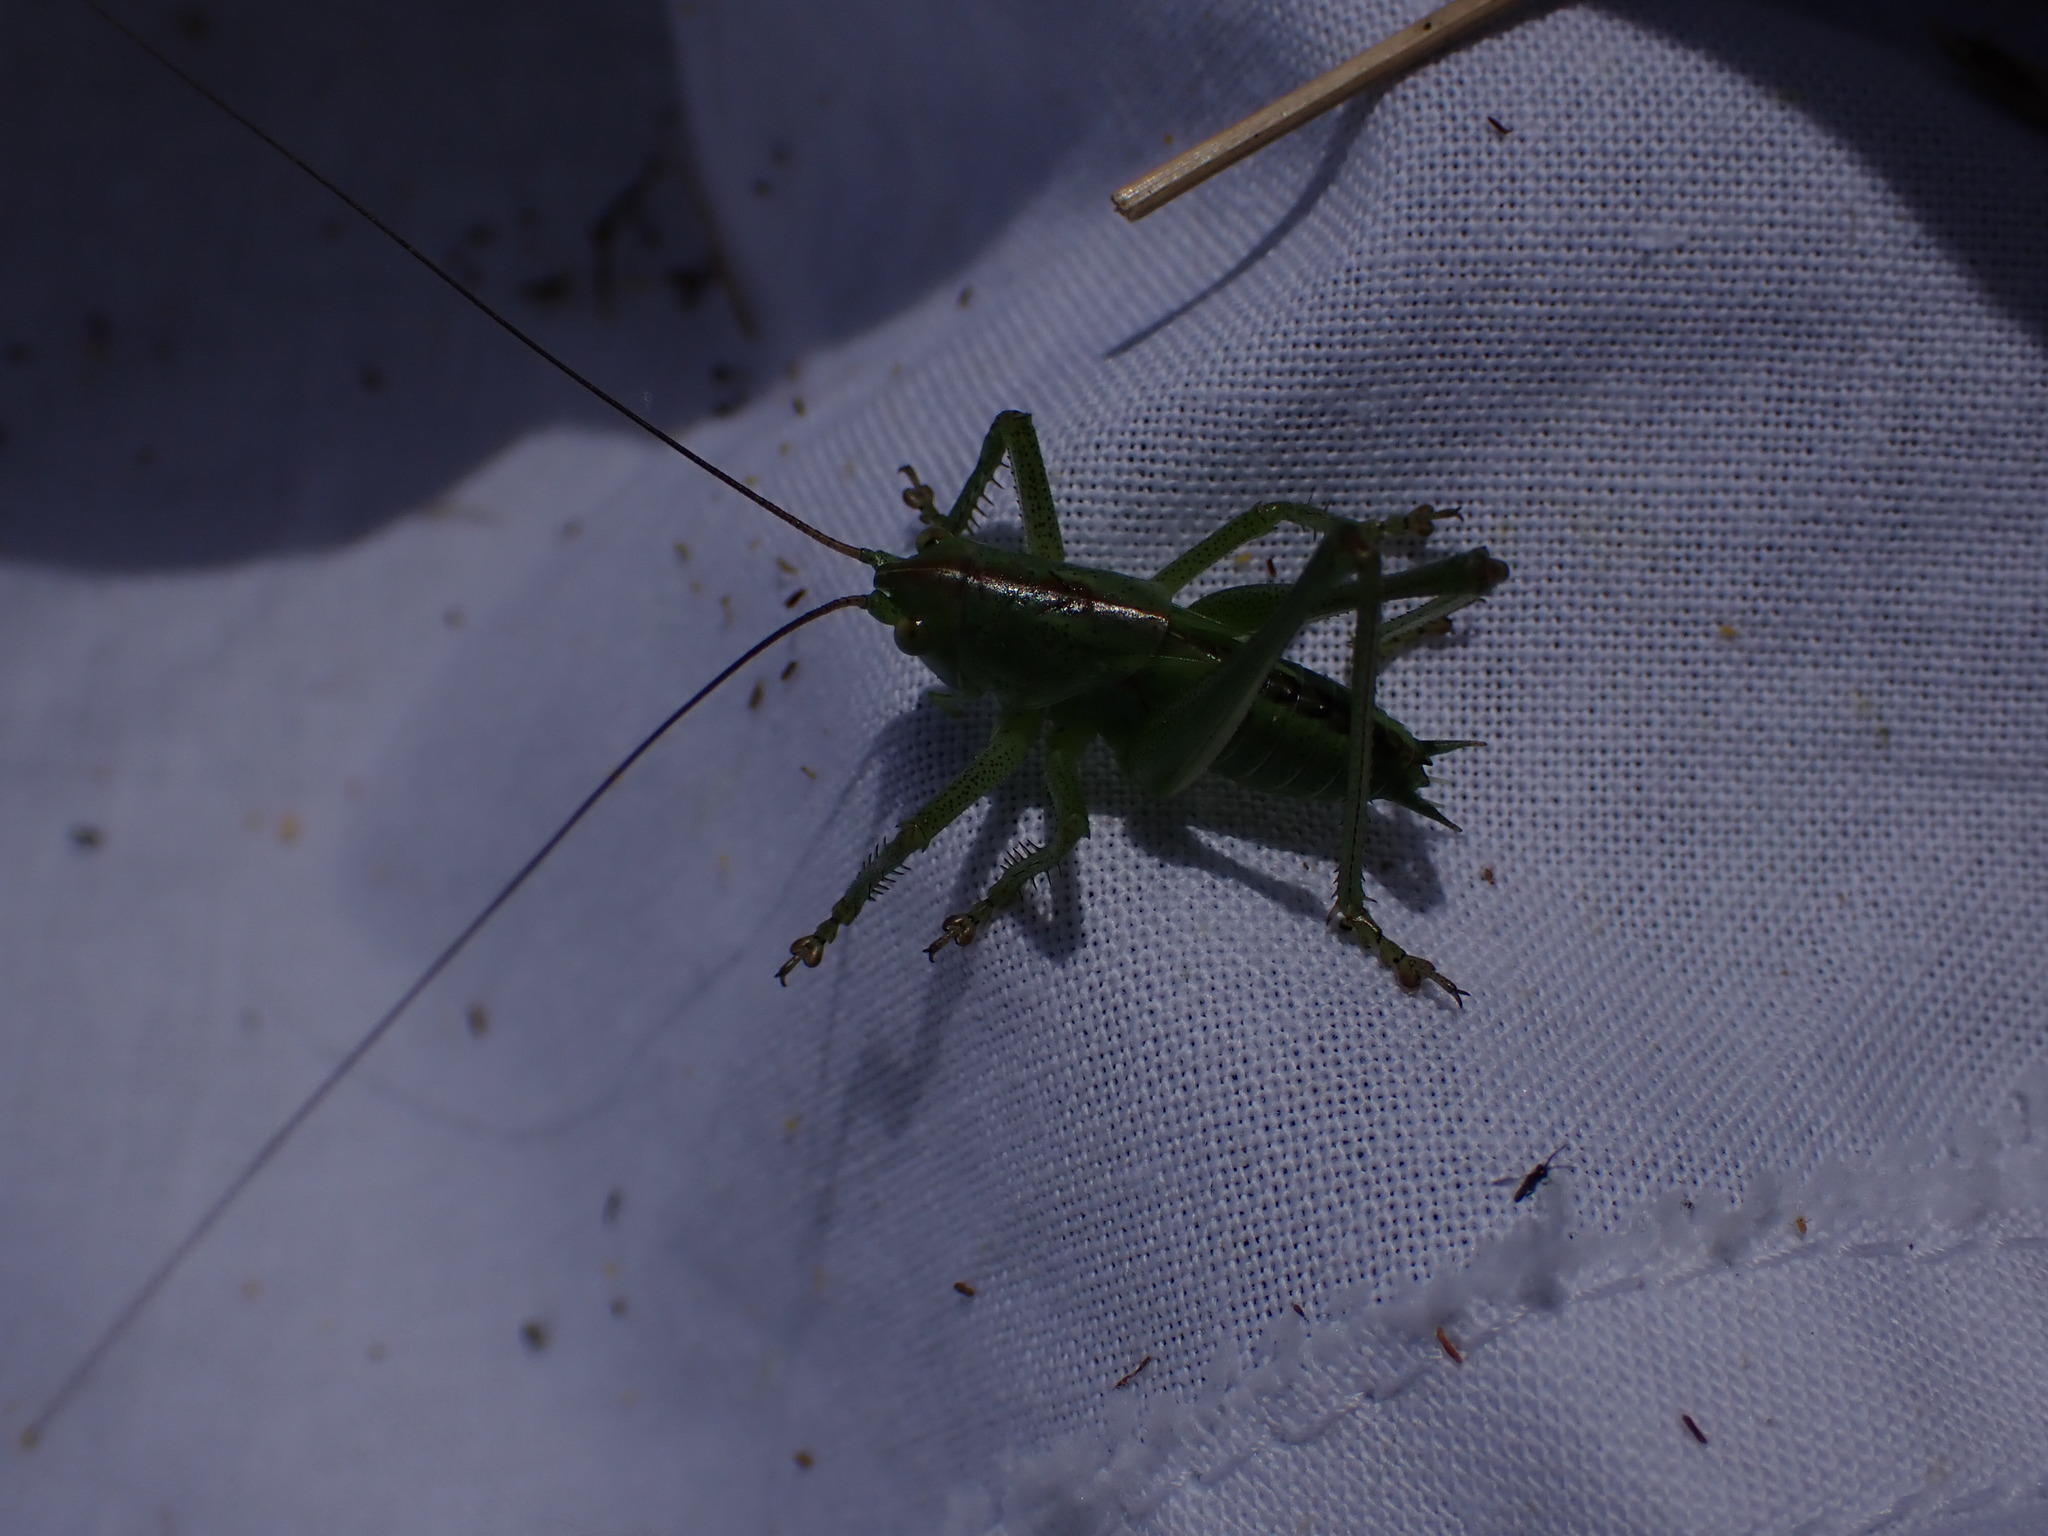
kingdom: Animalia
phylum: Arthropoda
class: Insecta
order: Orthoptera
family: Tettigoniidae
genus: Tettigonia
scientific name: Tettigonia viridissima
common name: Great green bush-cricket
